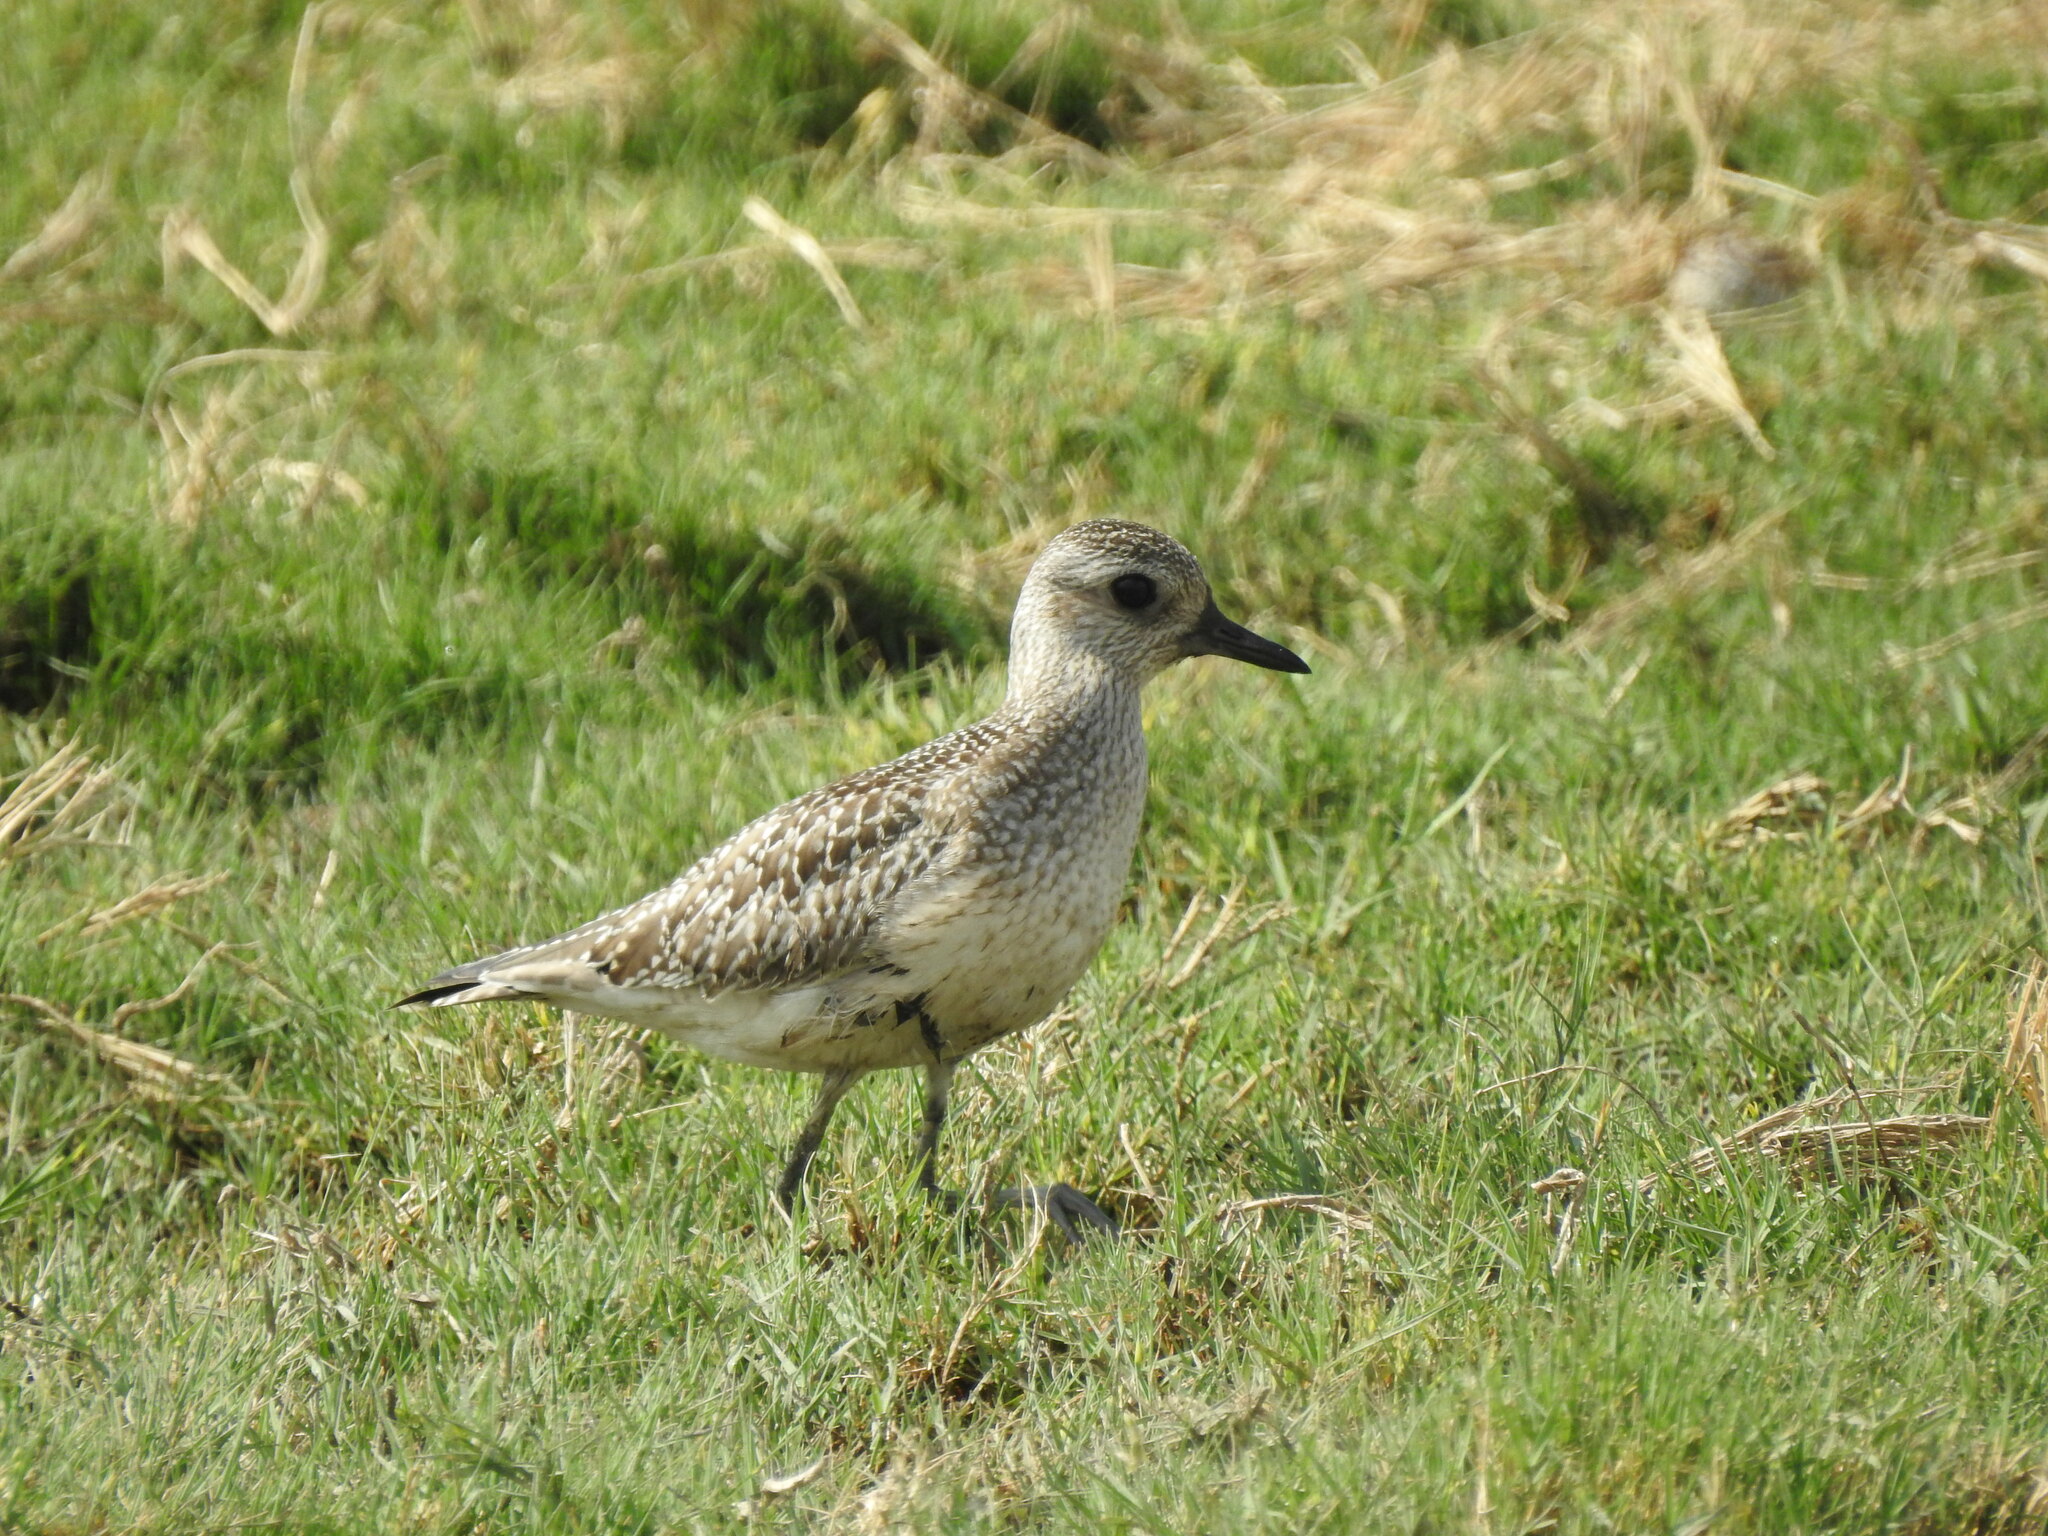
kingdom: Animalia
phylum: Chordata
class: Aves
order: Charadriiformes
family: Charadriidae
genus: Pluvialis
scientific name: Pluvialis squatarola
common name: Grey plover
